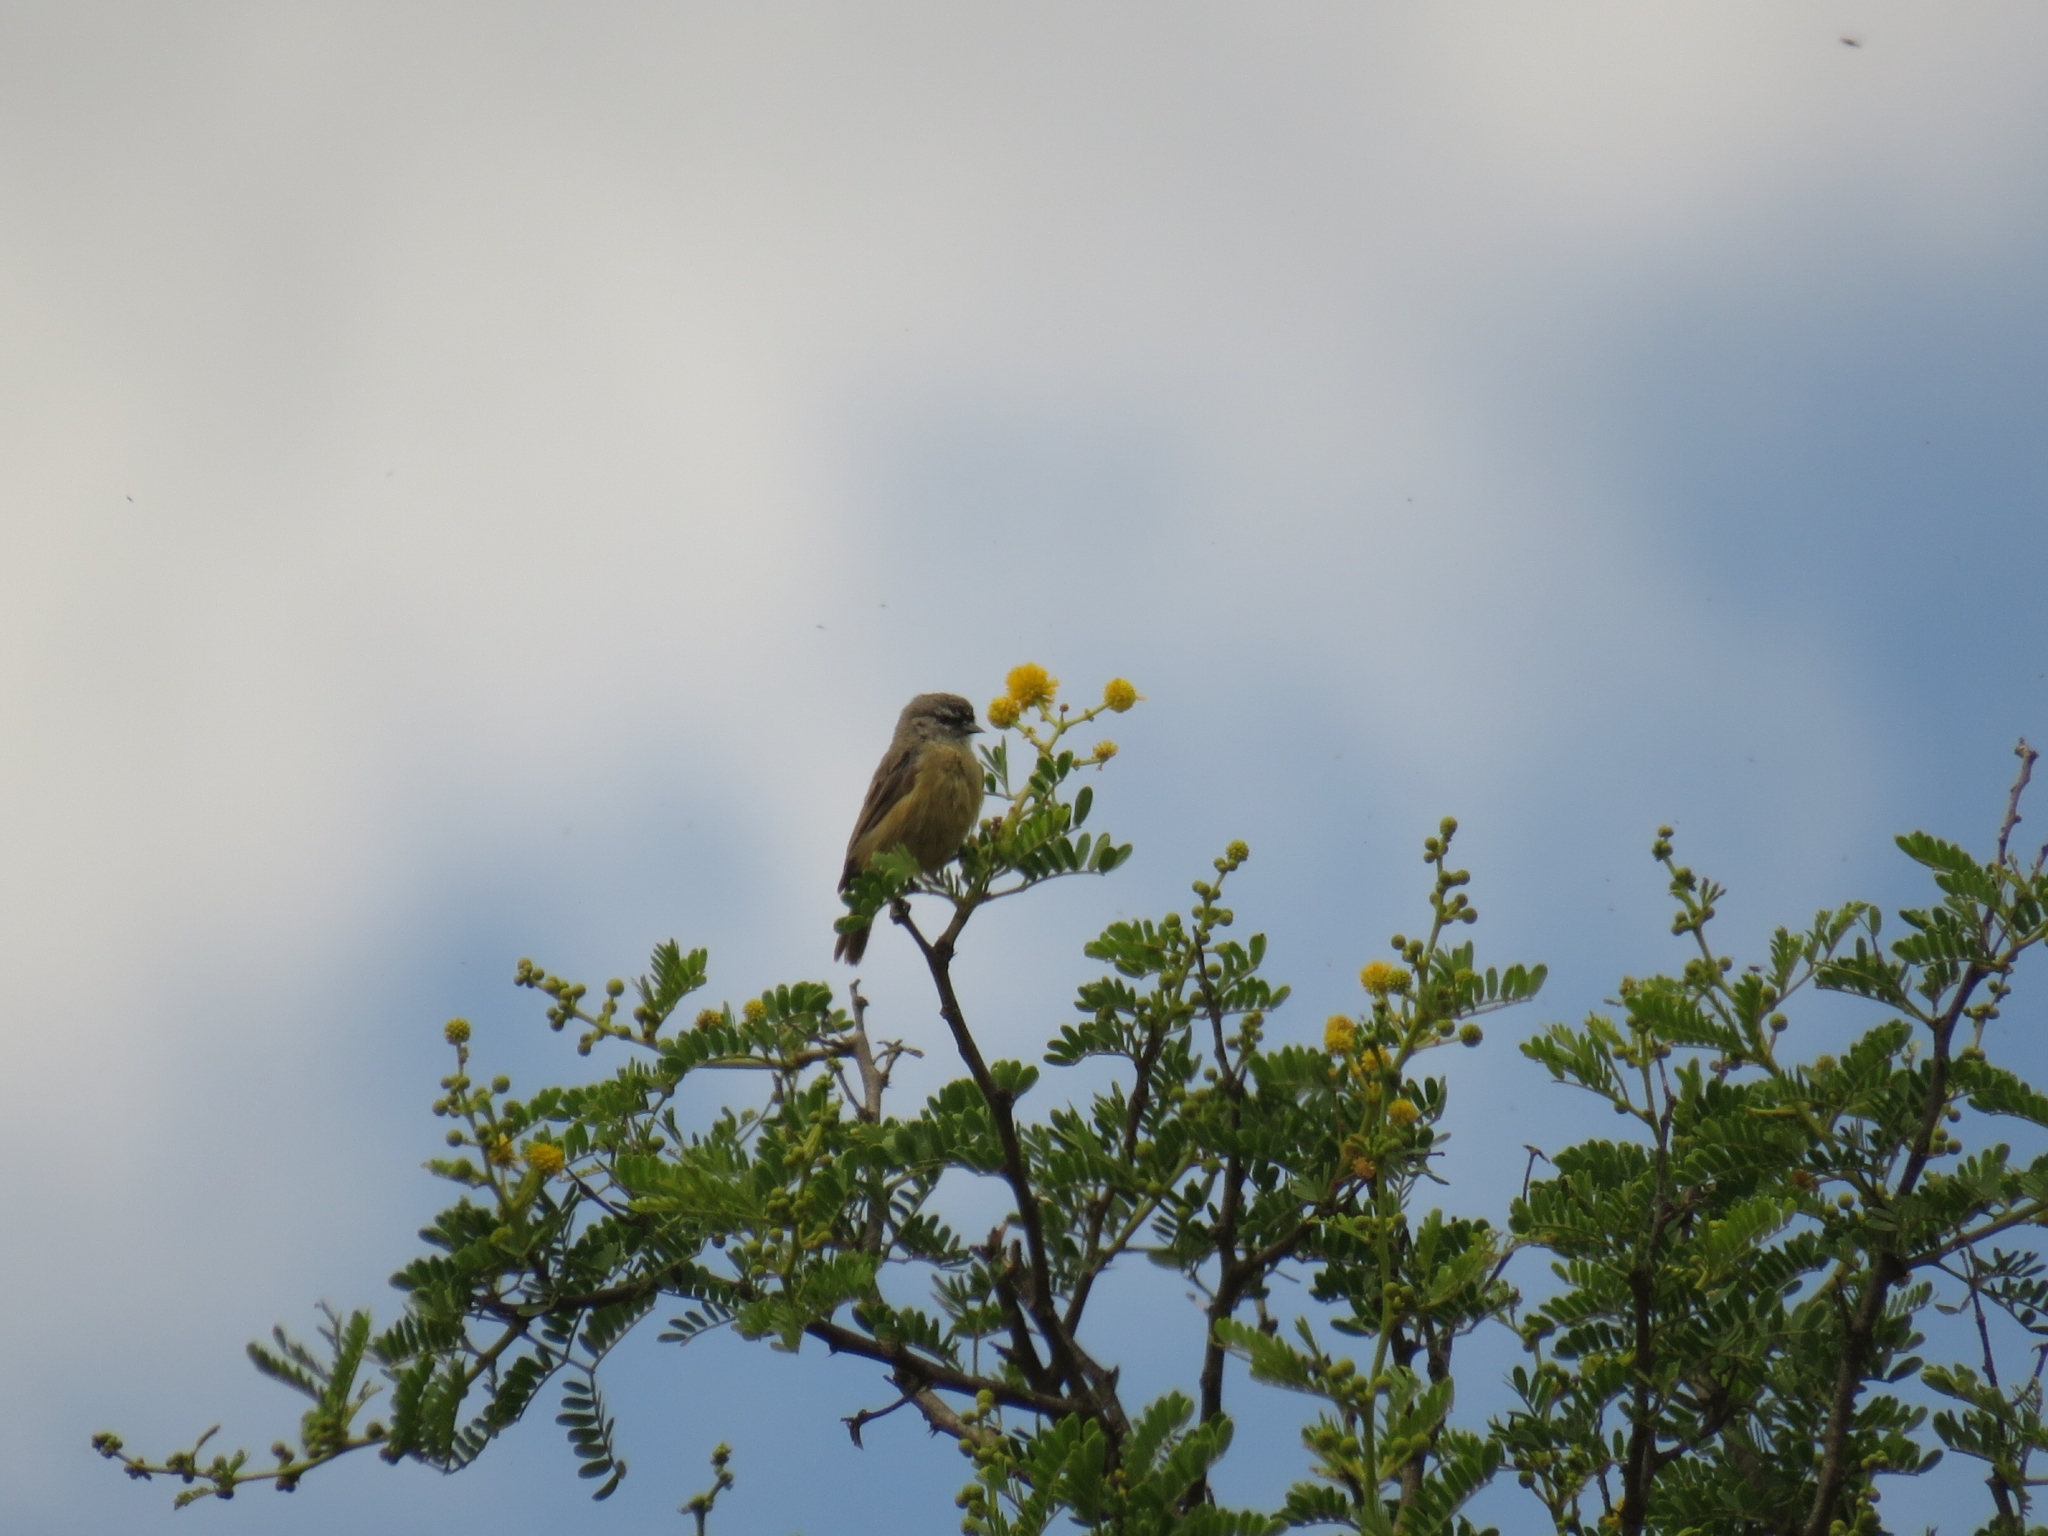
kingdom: Animalia
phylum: Chordata
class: Aves
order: Passeriformes
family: Remizidae
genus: Anthoscopus
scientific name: Anthoscopus minutus
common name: Cape penduline tit
